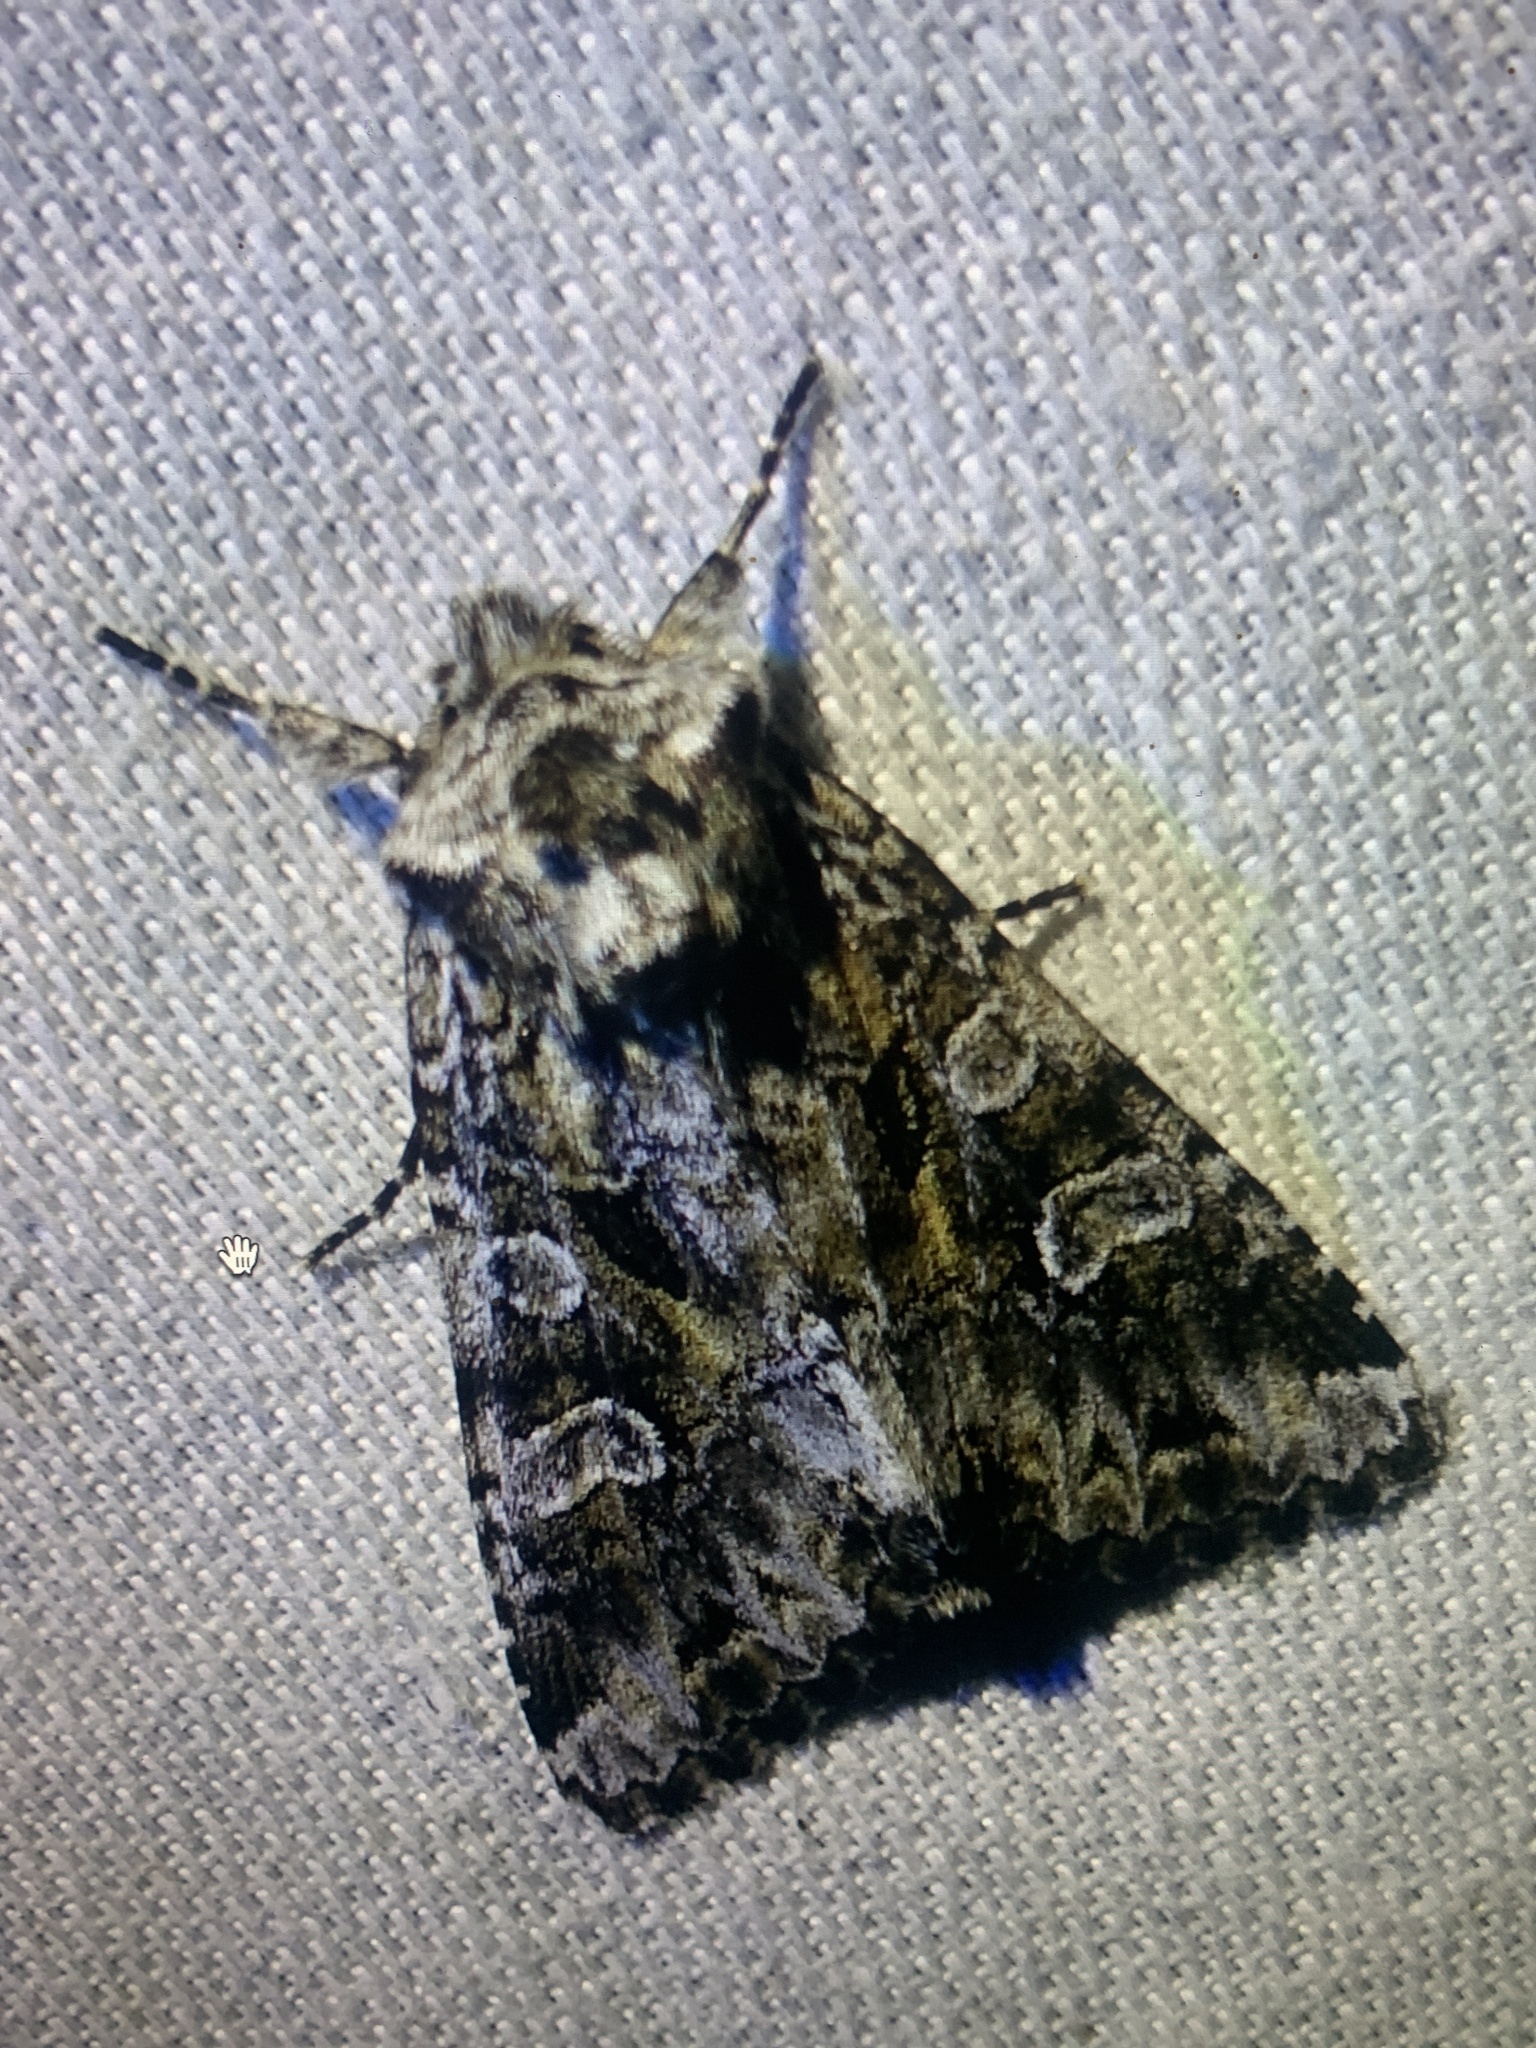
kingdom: Animalia
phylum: Arthropoda
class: Insecta
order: Lepidoptera
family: Noctuidae
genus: Pachetra
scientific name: Pachetra sagittigera
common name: Feathered ear
